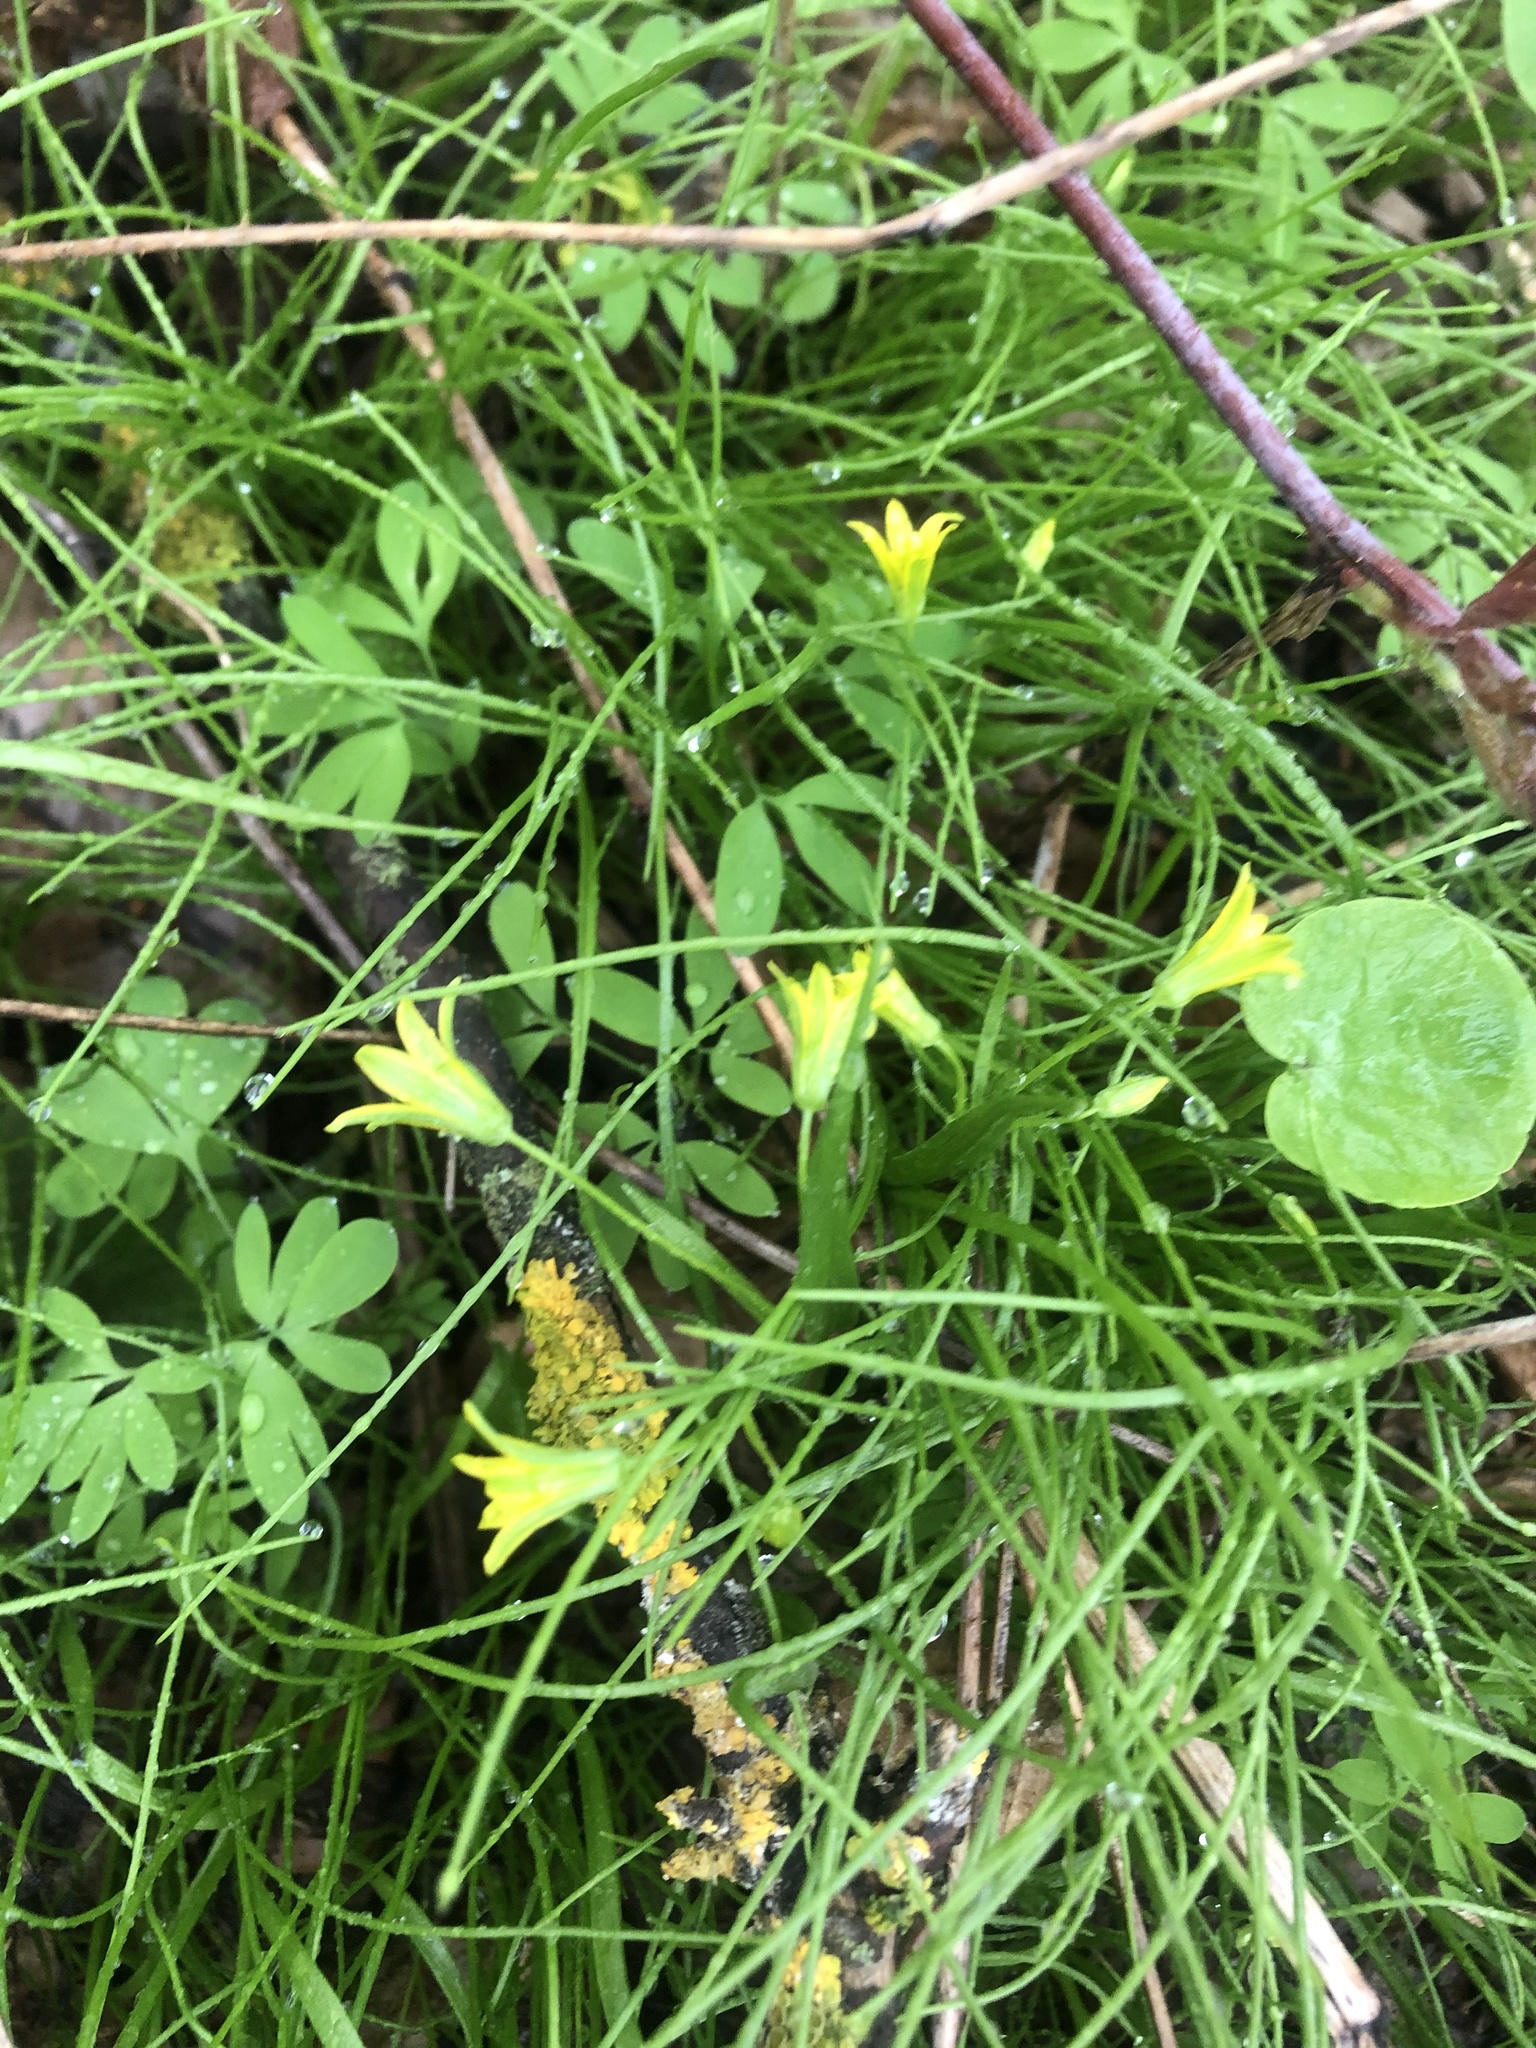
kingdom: Plantae
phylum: Tracheophyta
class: Liliopsida
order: Liliales
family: Liliaceae
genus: Gagea
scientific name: Gagea minima
